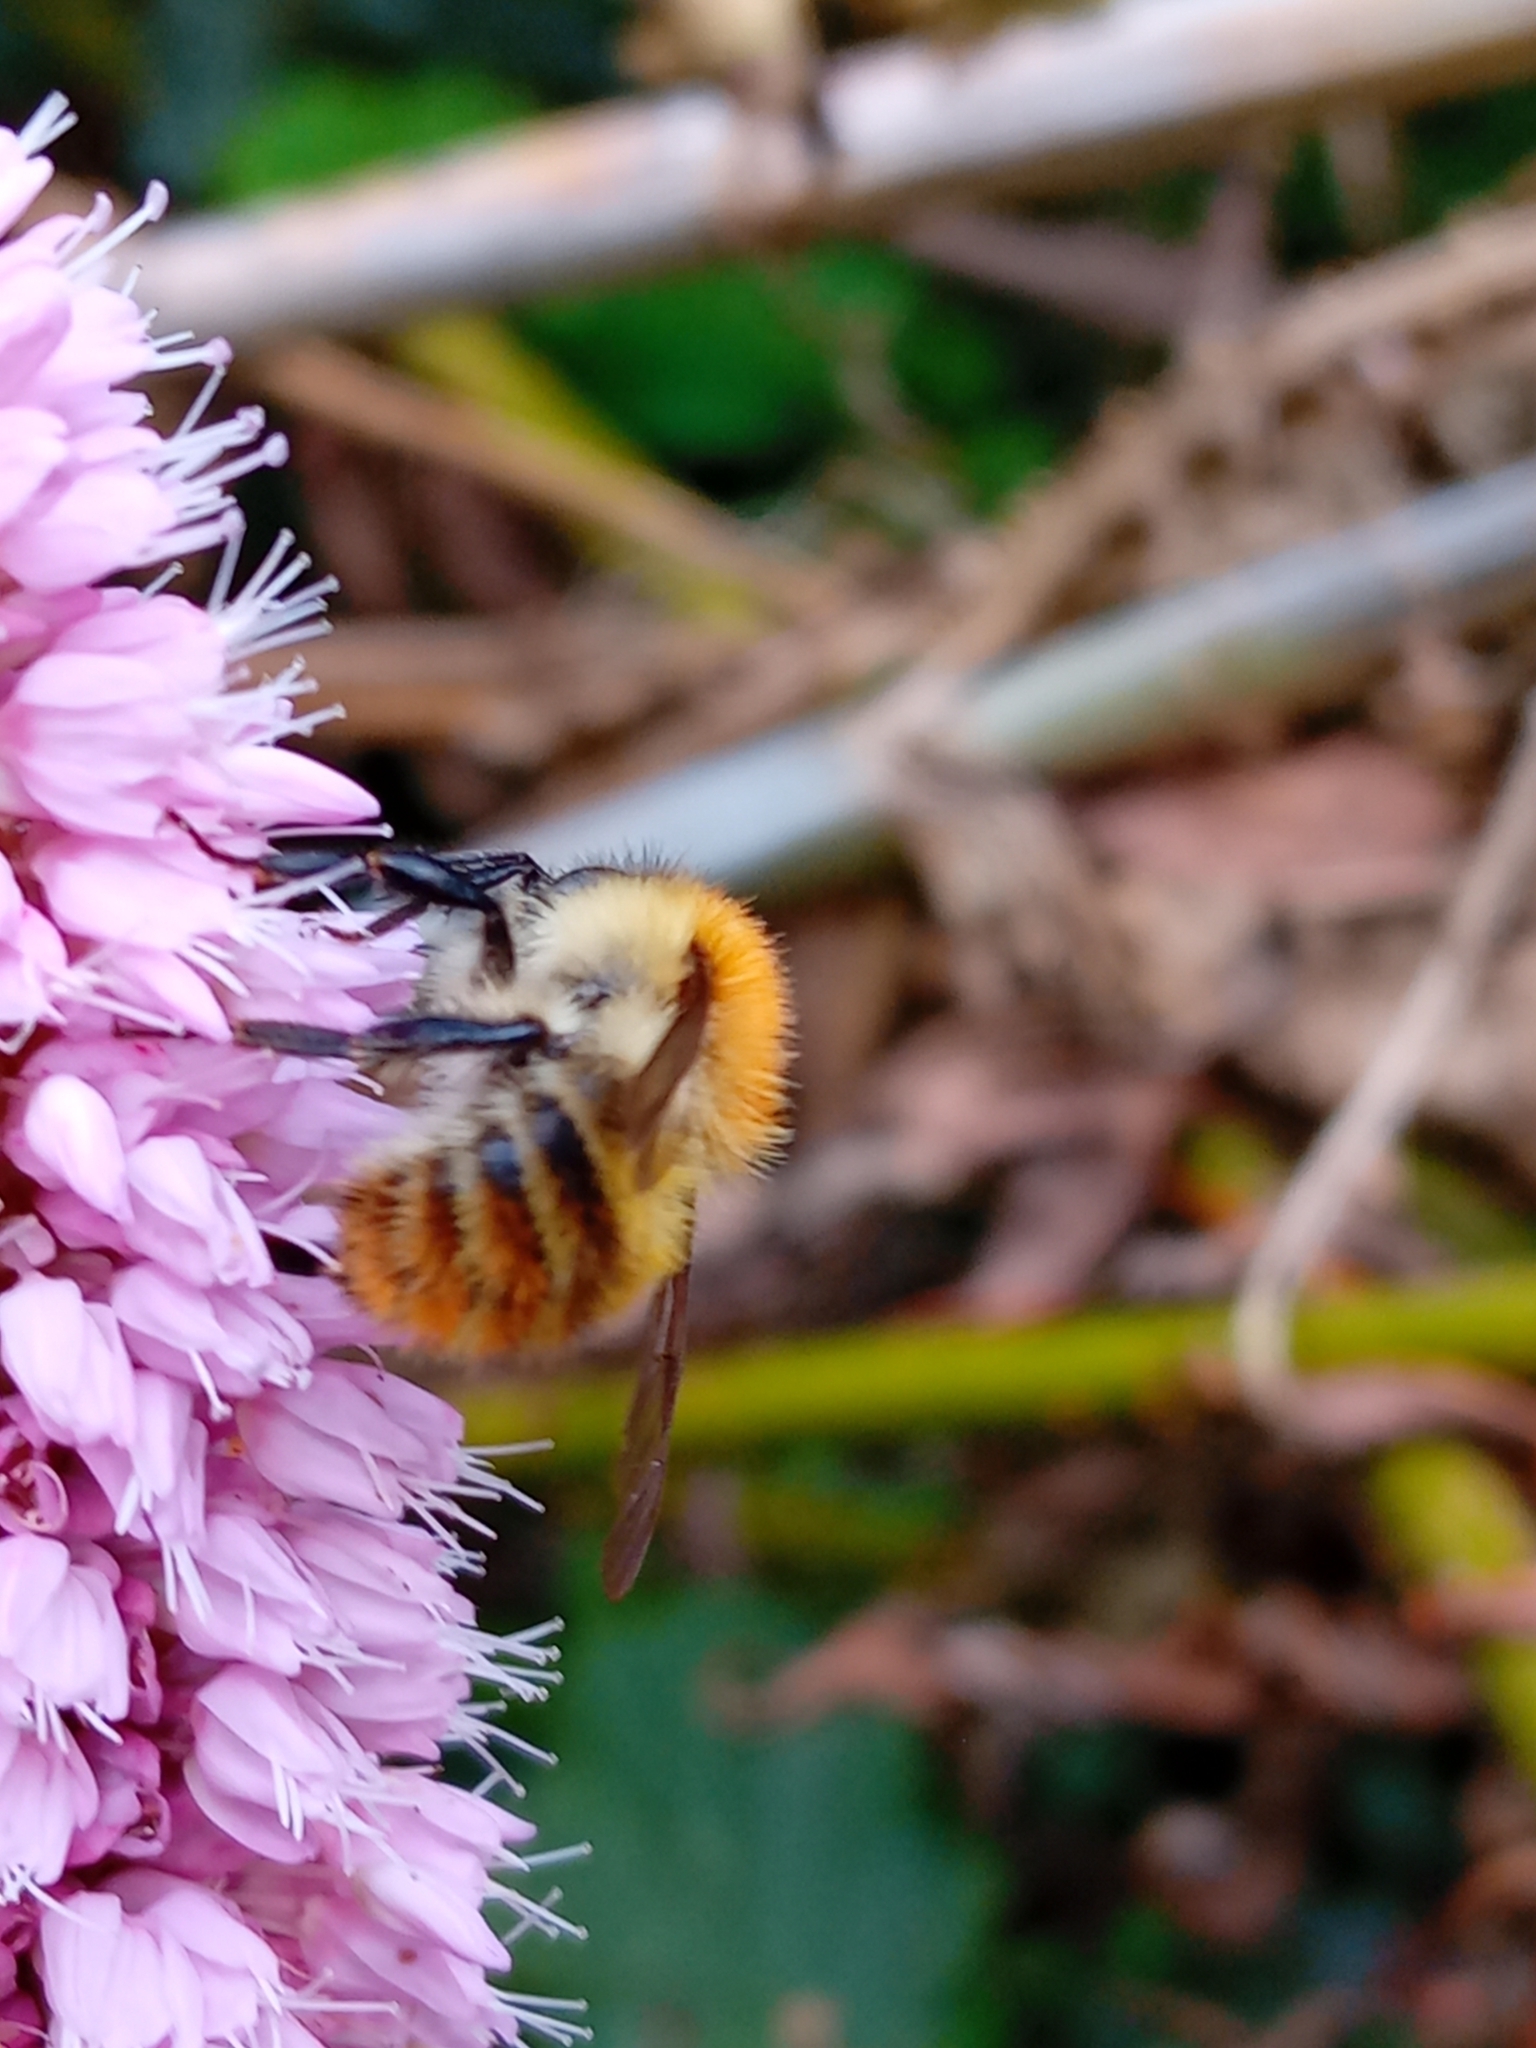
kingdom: Animalia
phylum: Arthropoda
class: Insecta
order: Hymenoptera
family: Apidae
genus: Bombus
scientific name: Bombus pascuorum
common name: Common carder bee
